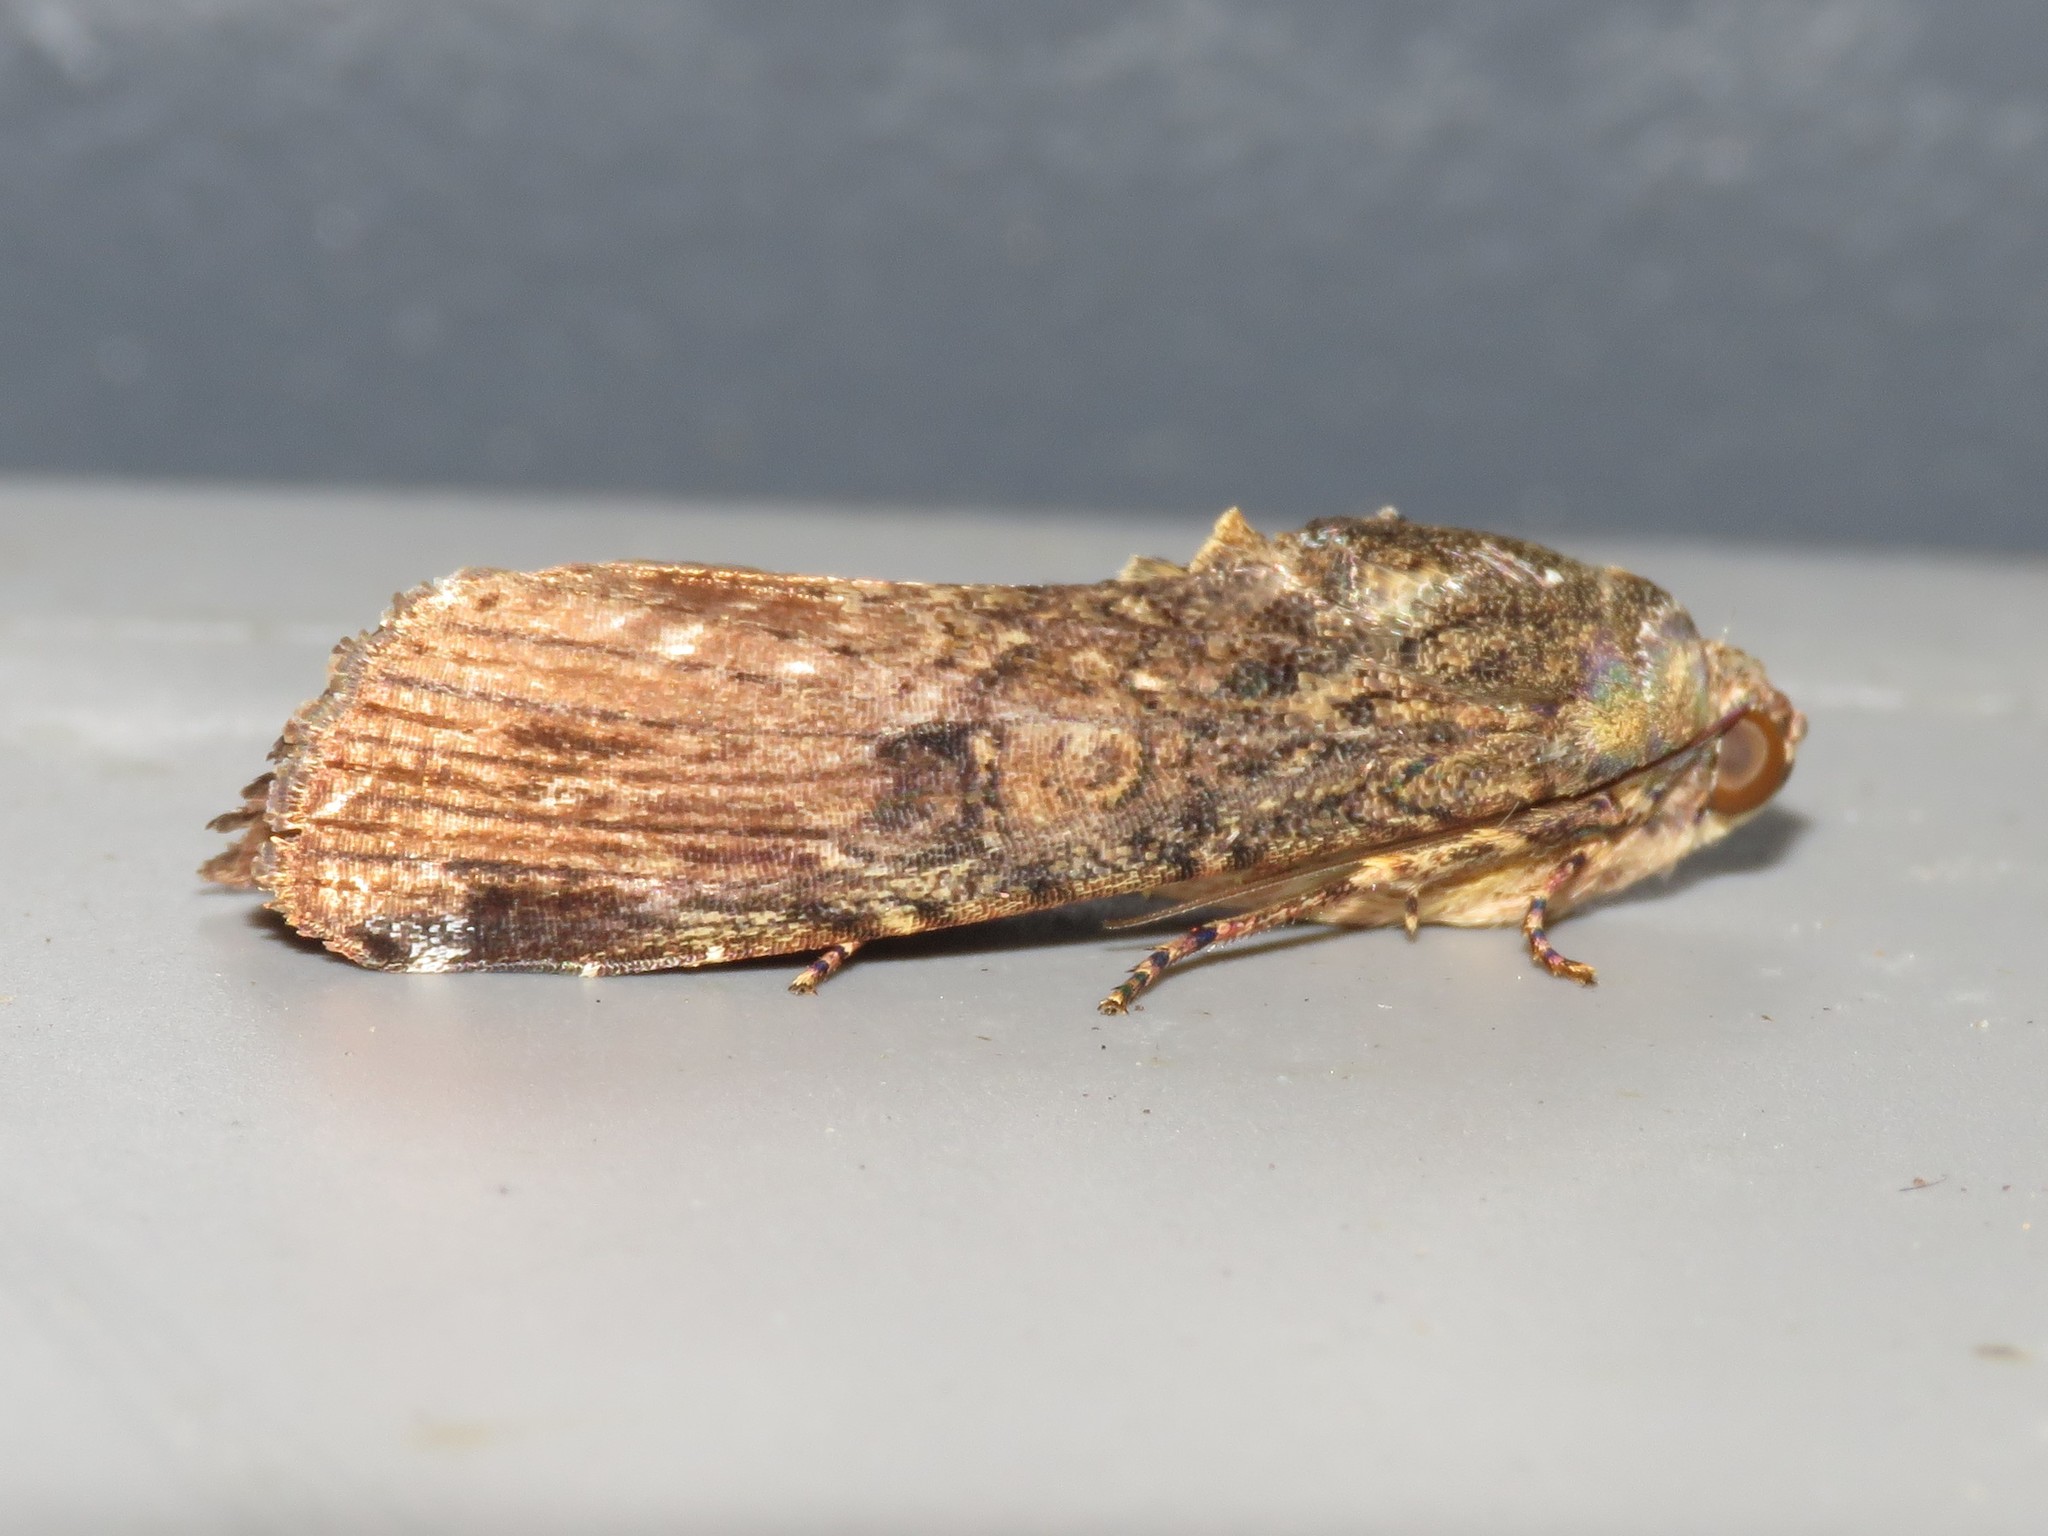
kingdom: Animalia
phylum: Arthropoda
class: Insecta
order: Lepidoptera
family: Noctuidae
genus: Magusa
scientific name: Magusa divaricata
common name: Orb narrow-winged moth
